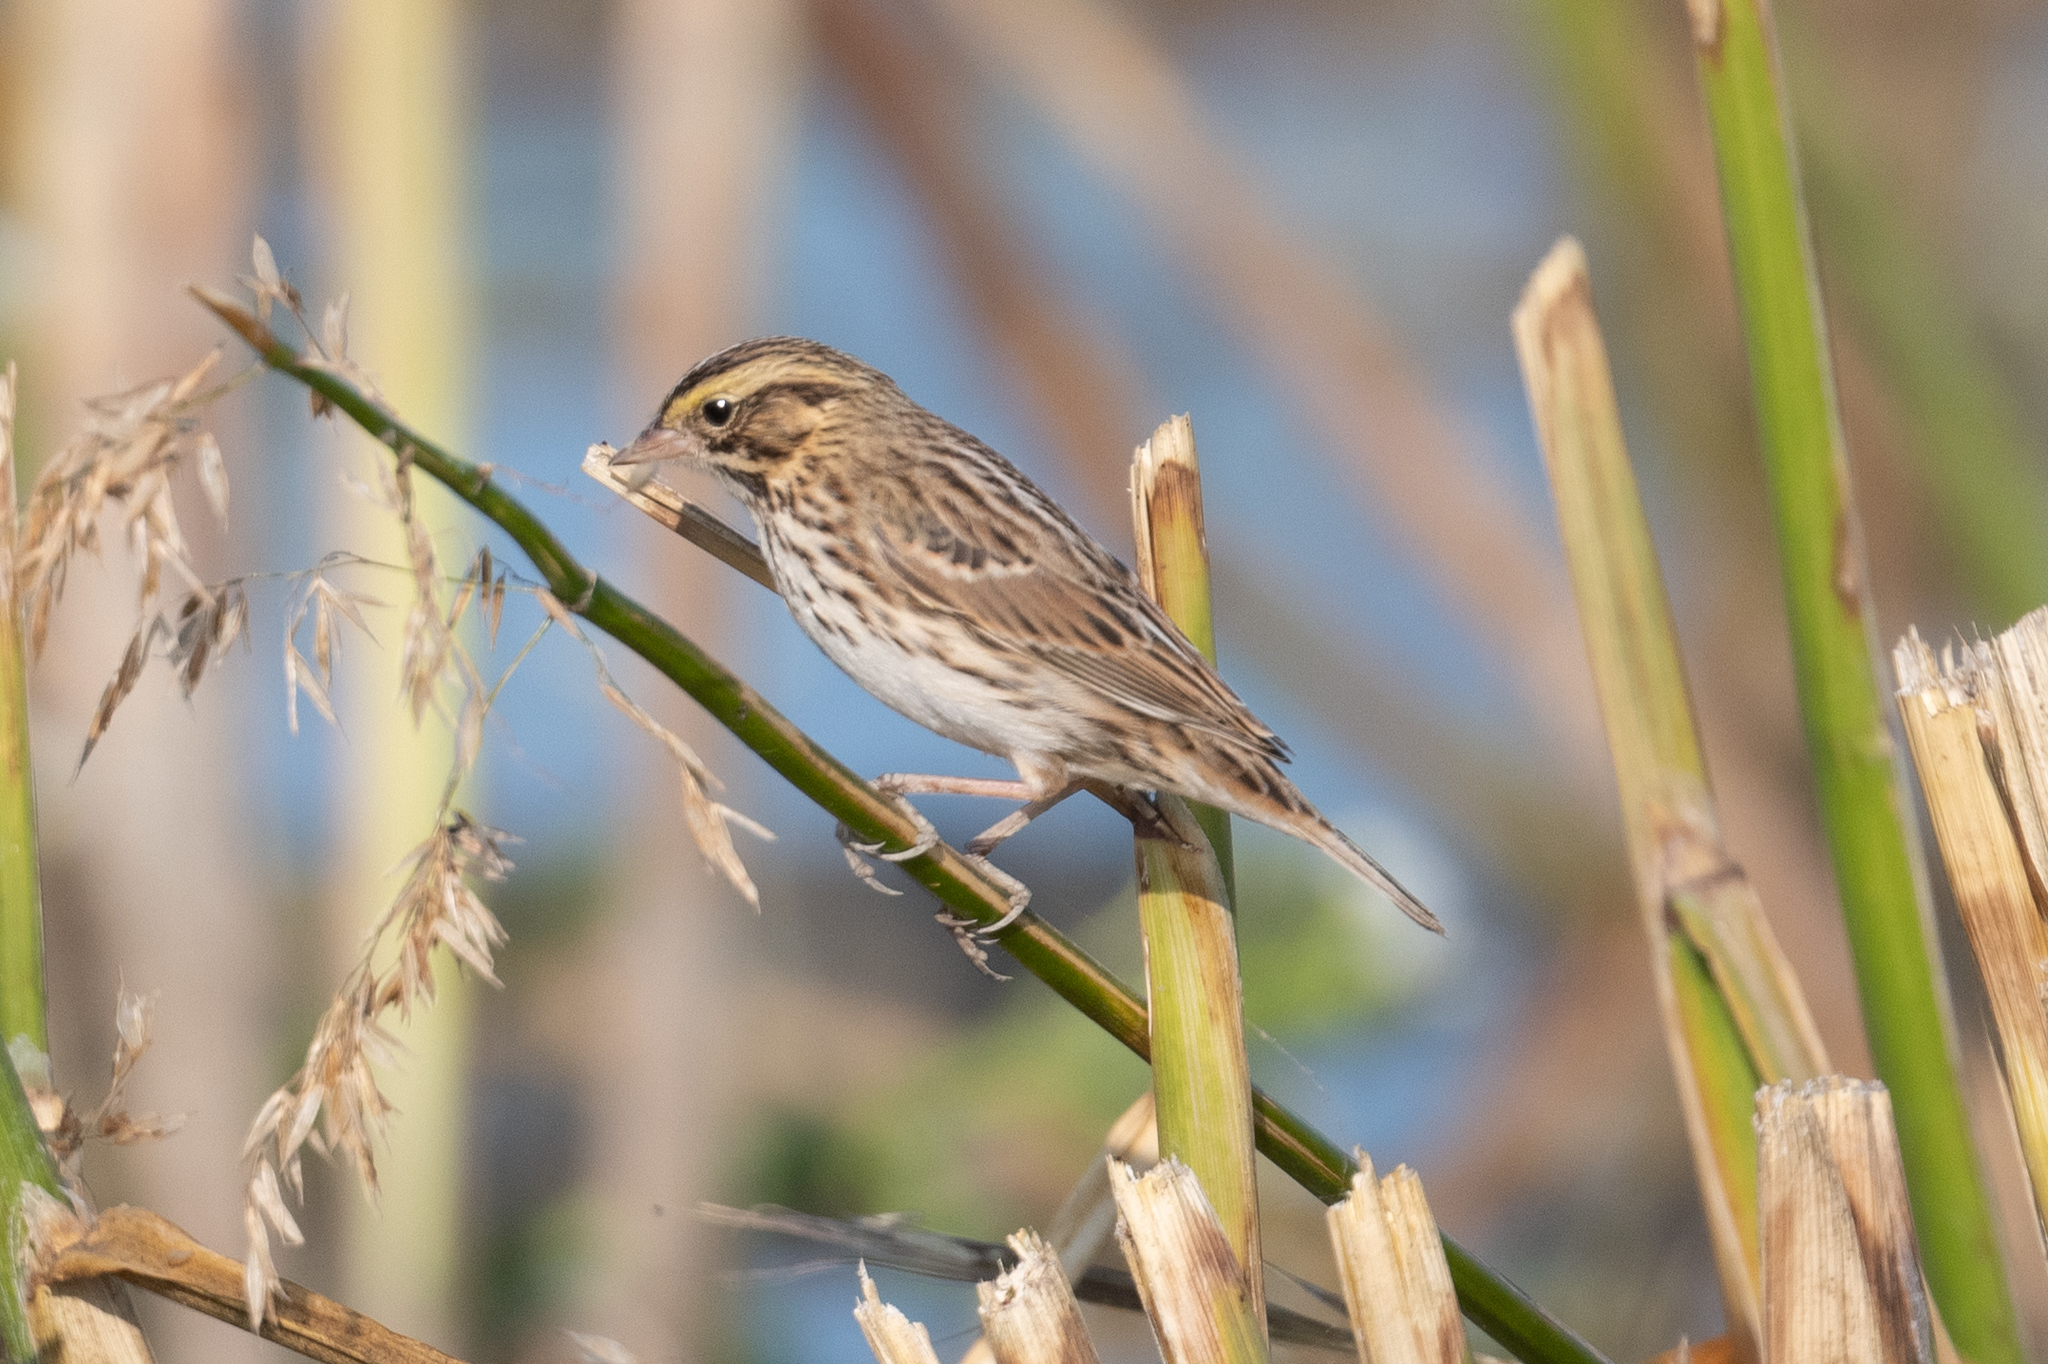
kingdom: Animalia
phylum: Chordata
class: Aves
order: Passeriformes
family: Passerellidae
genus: Passerculus
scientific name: Passerculus sandwichensis
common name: Savannah sparrow
